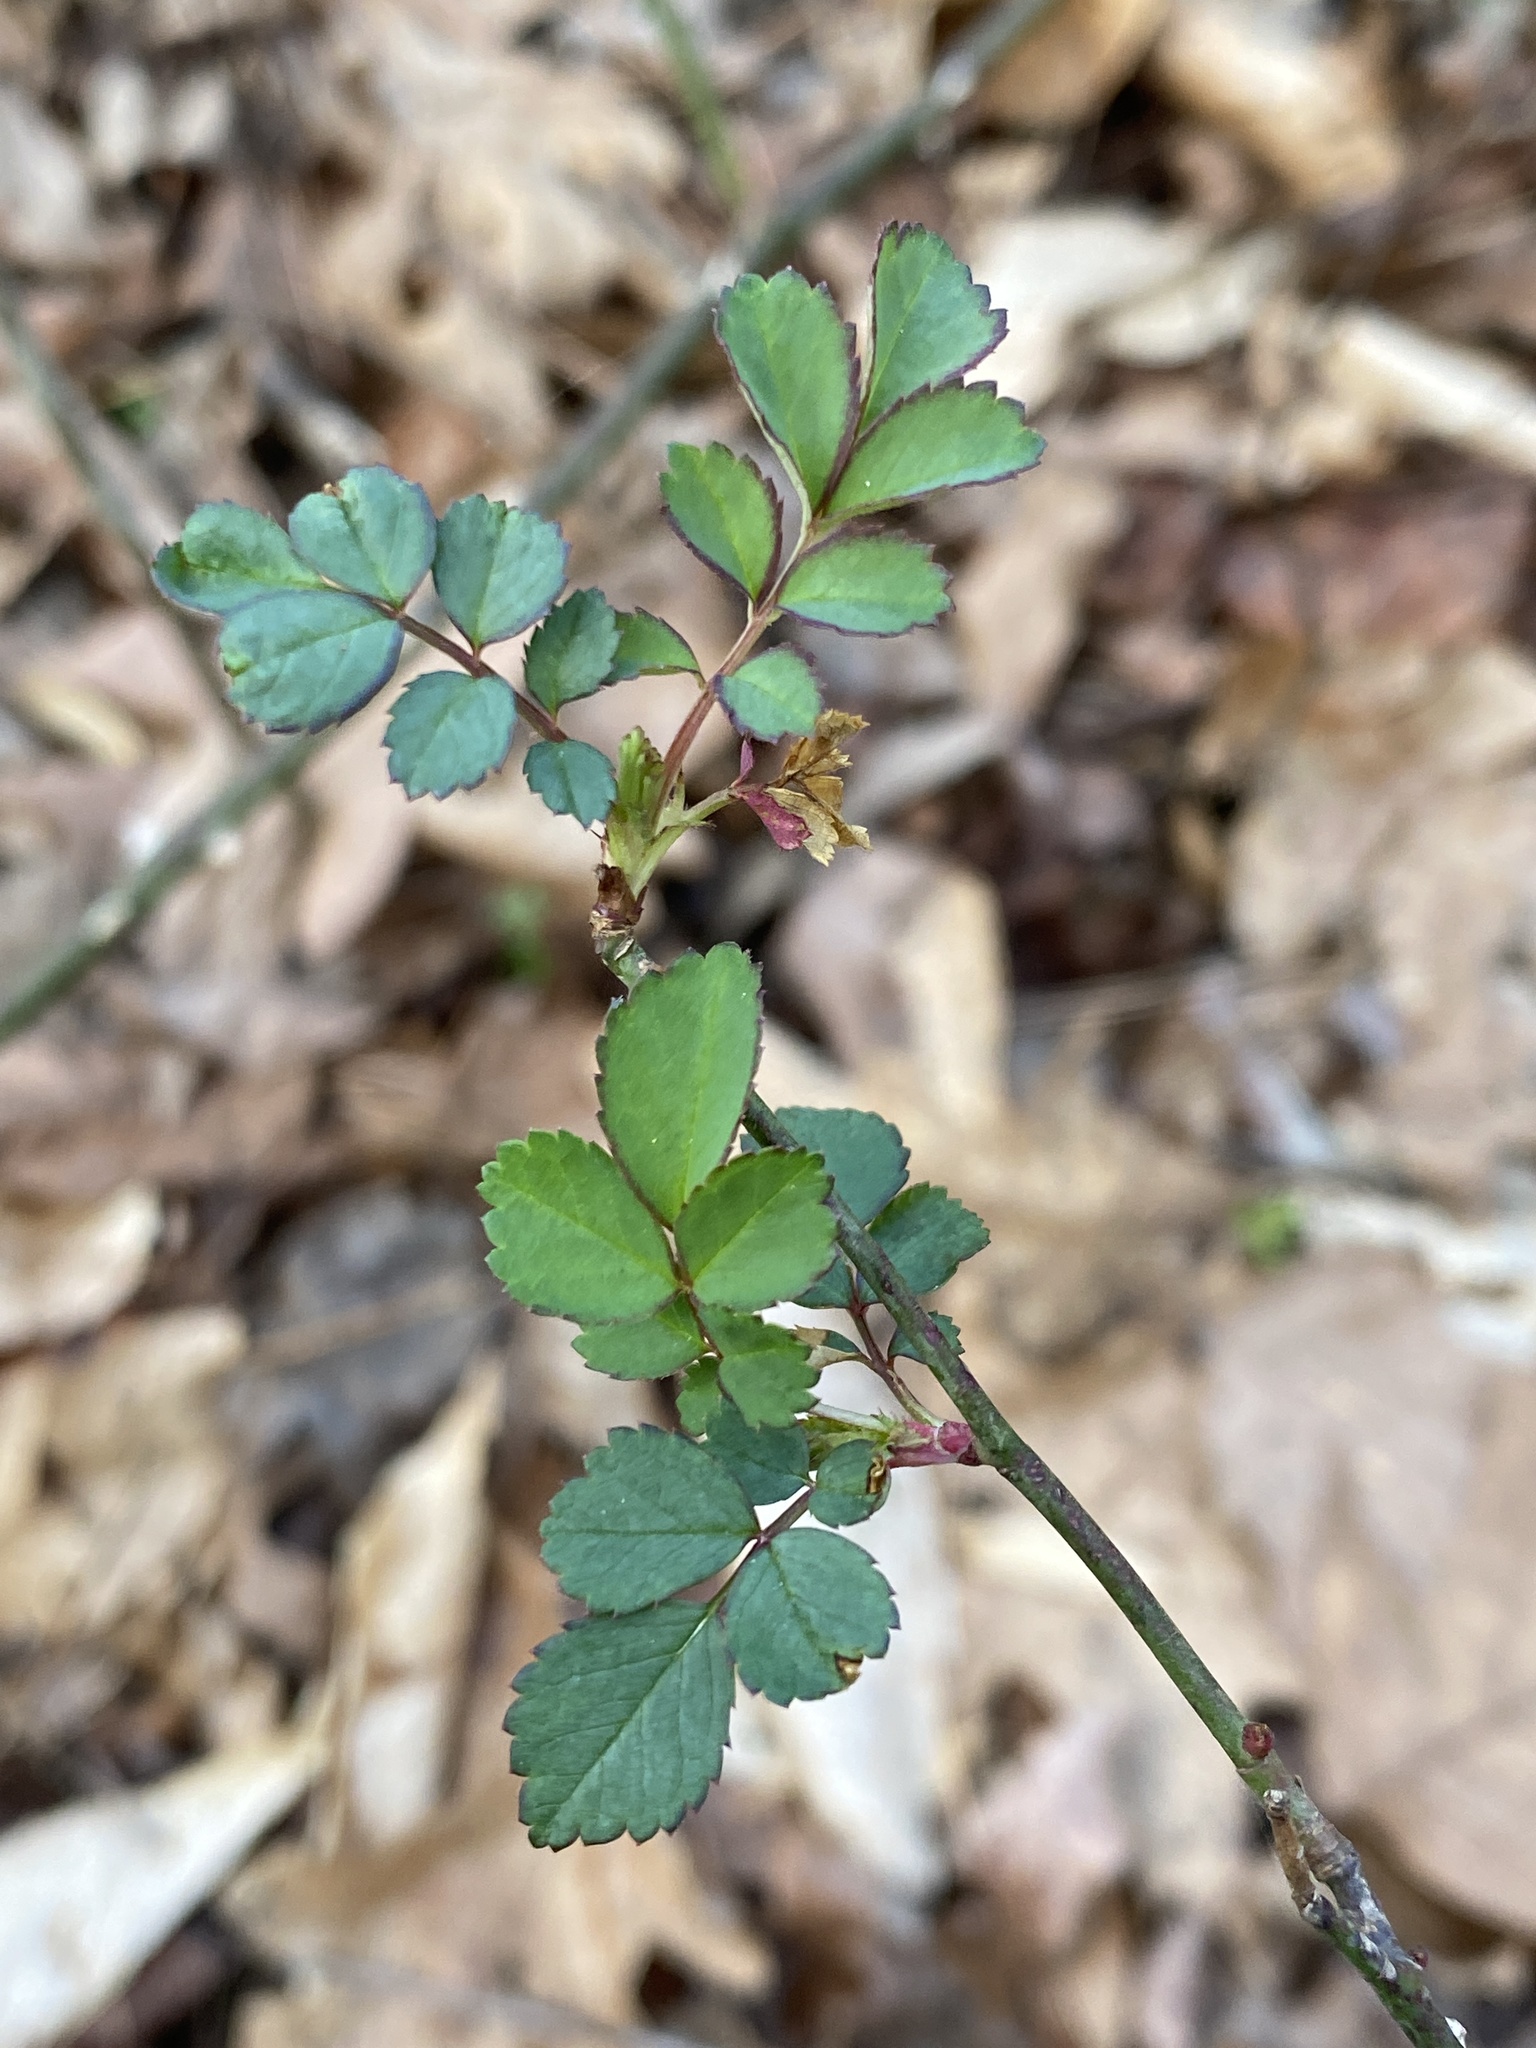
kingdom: Plantae
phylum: Tracheophyta
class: Magnoliopsida
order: Rosales
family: Rosaceae
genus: Rosa
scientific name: Rosa multiflora
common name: Multiflora rose
